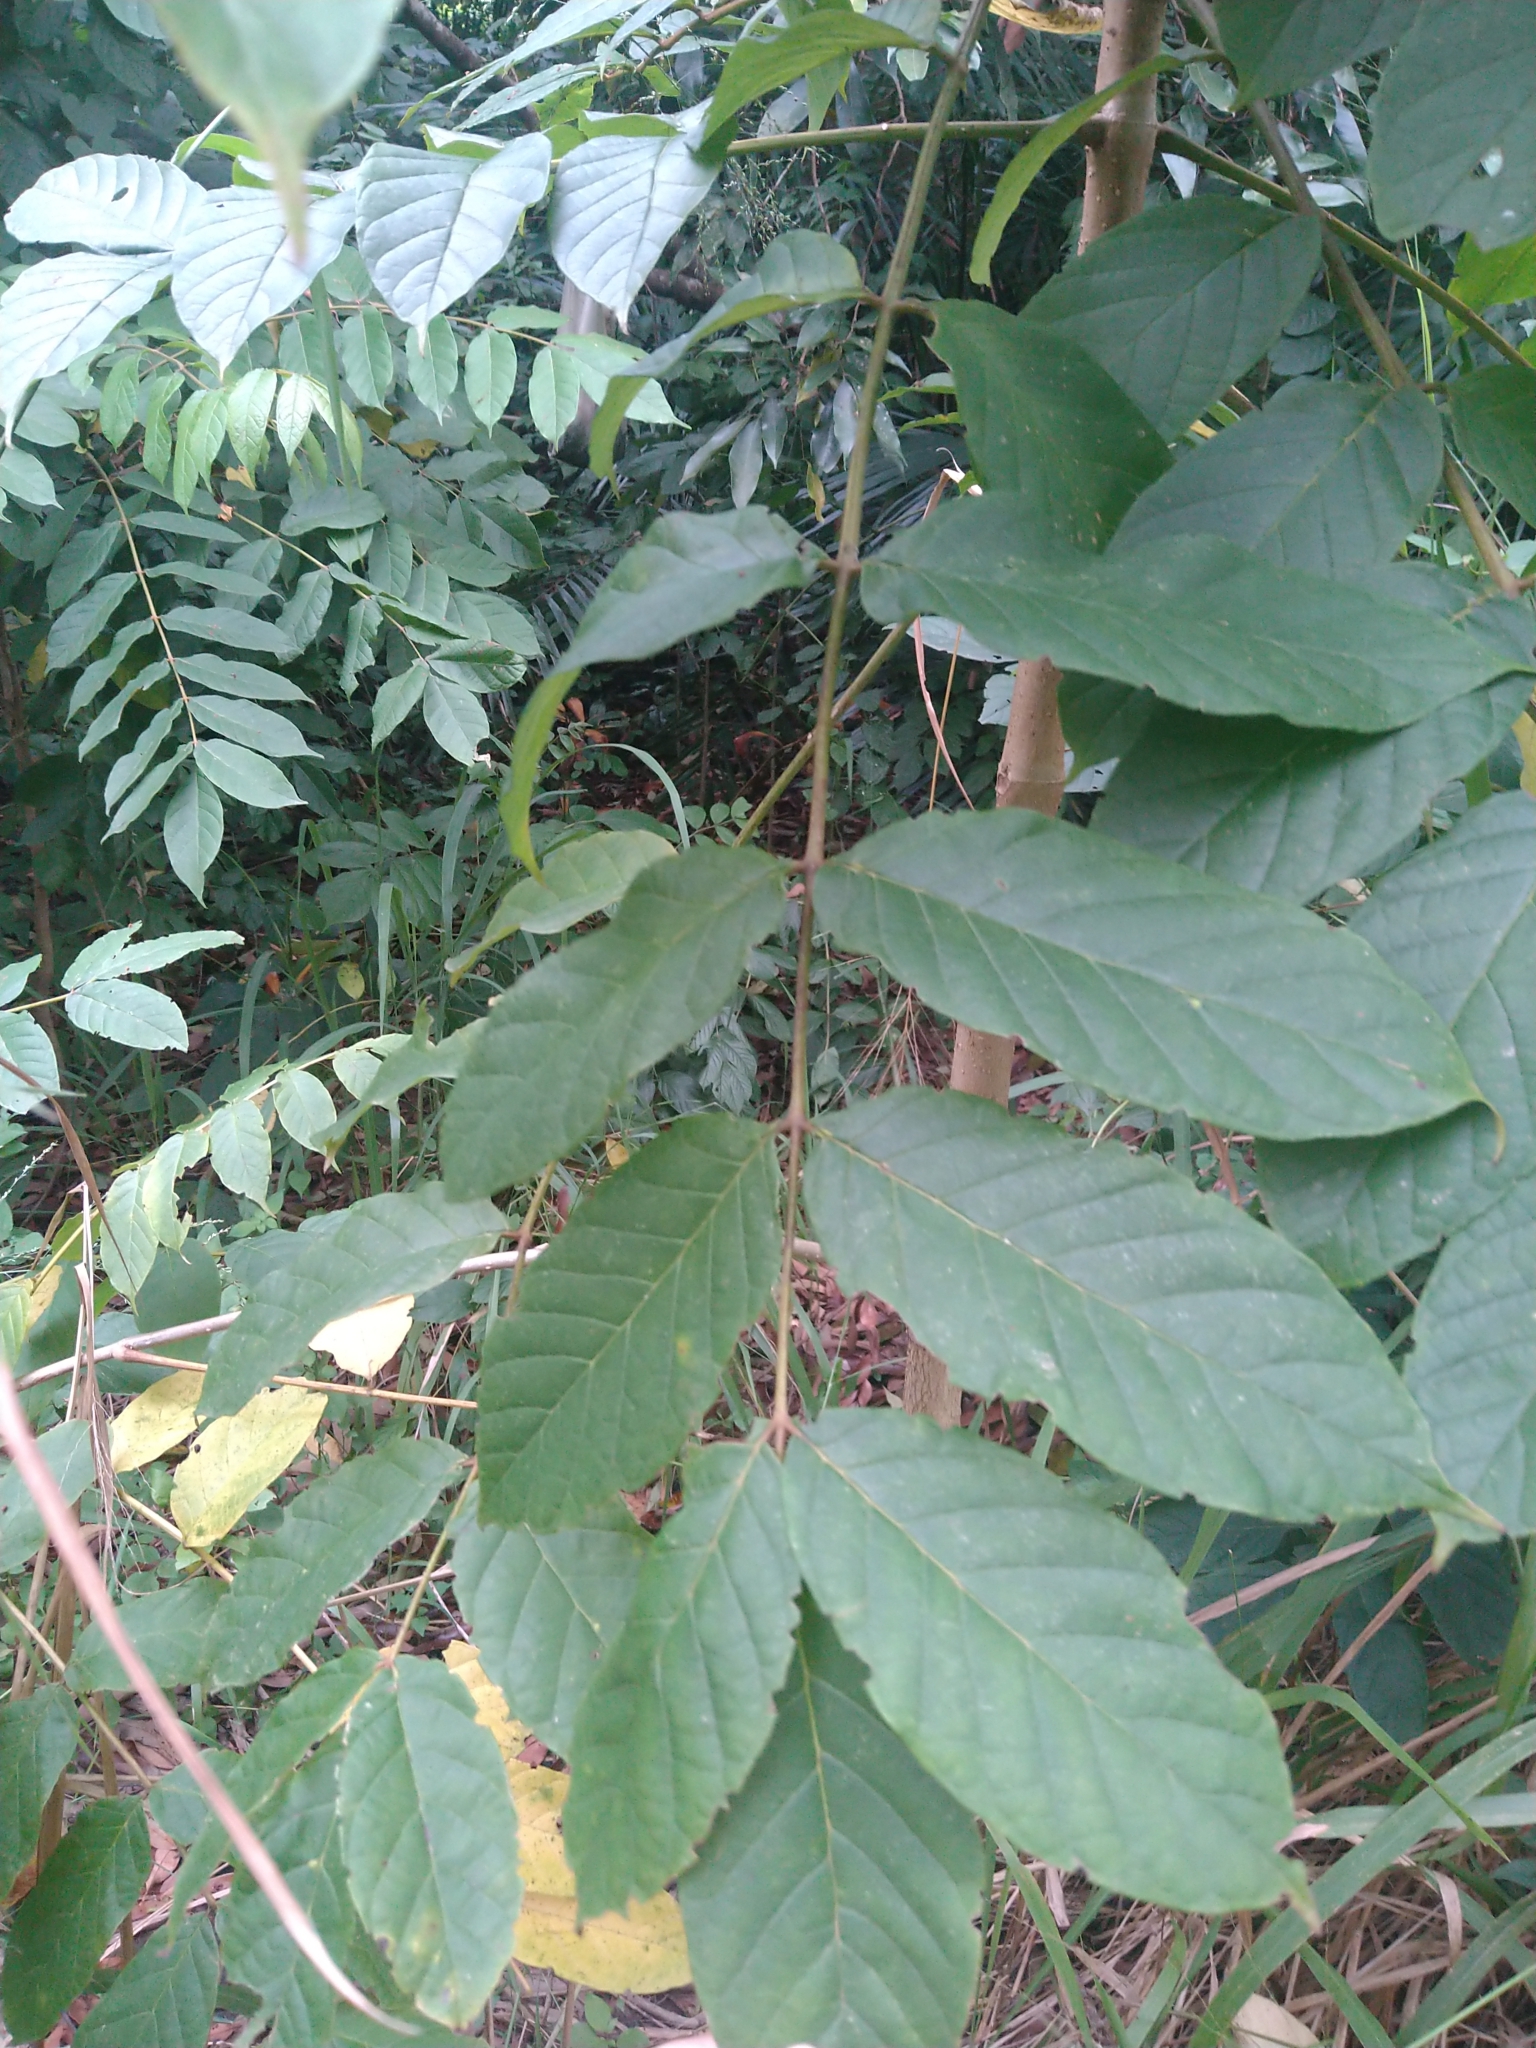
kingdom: Plantae
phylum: Tracheophyta
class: Magnoliopsida
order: Lamiales
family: Bignoniaceae
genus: Spathodea
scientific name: Spathodea campanulata
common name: African tuliptree
